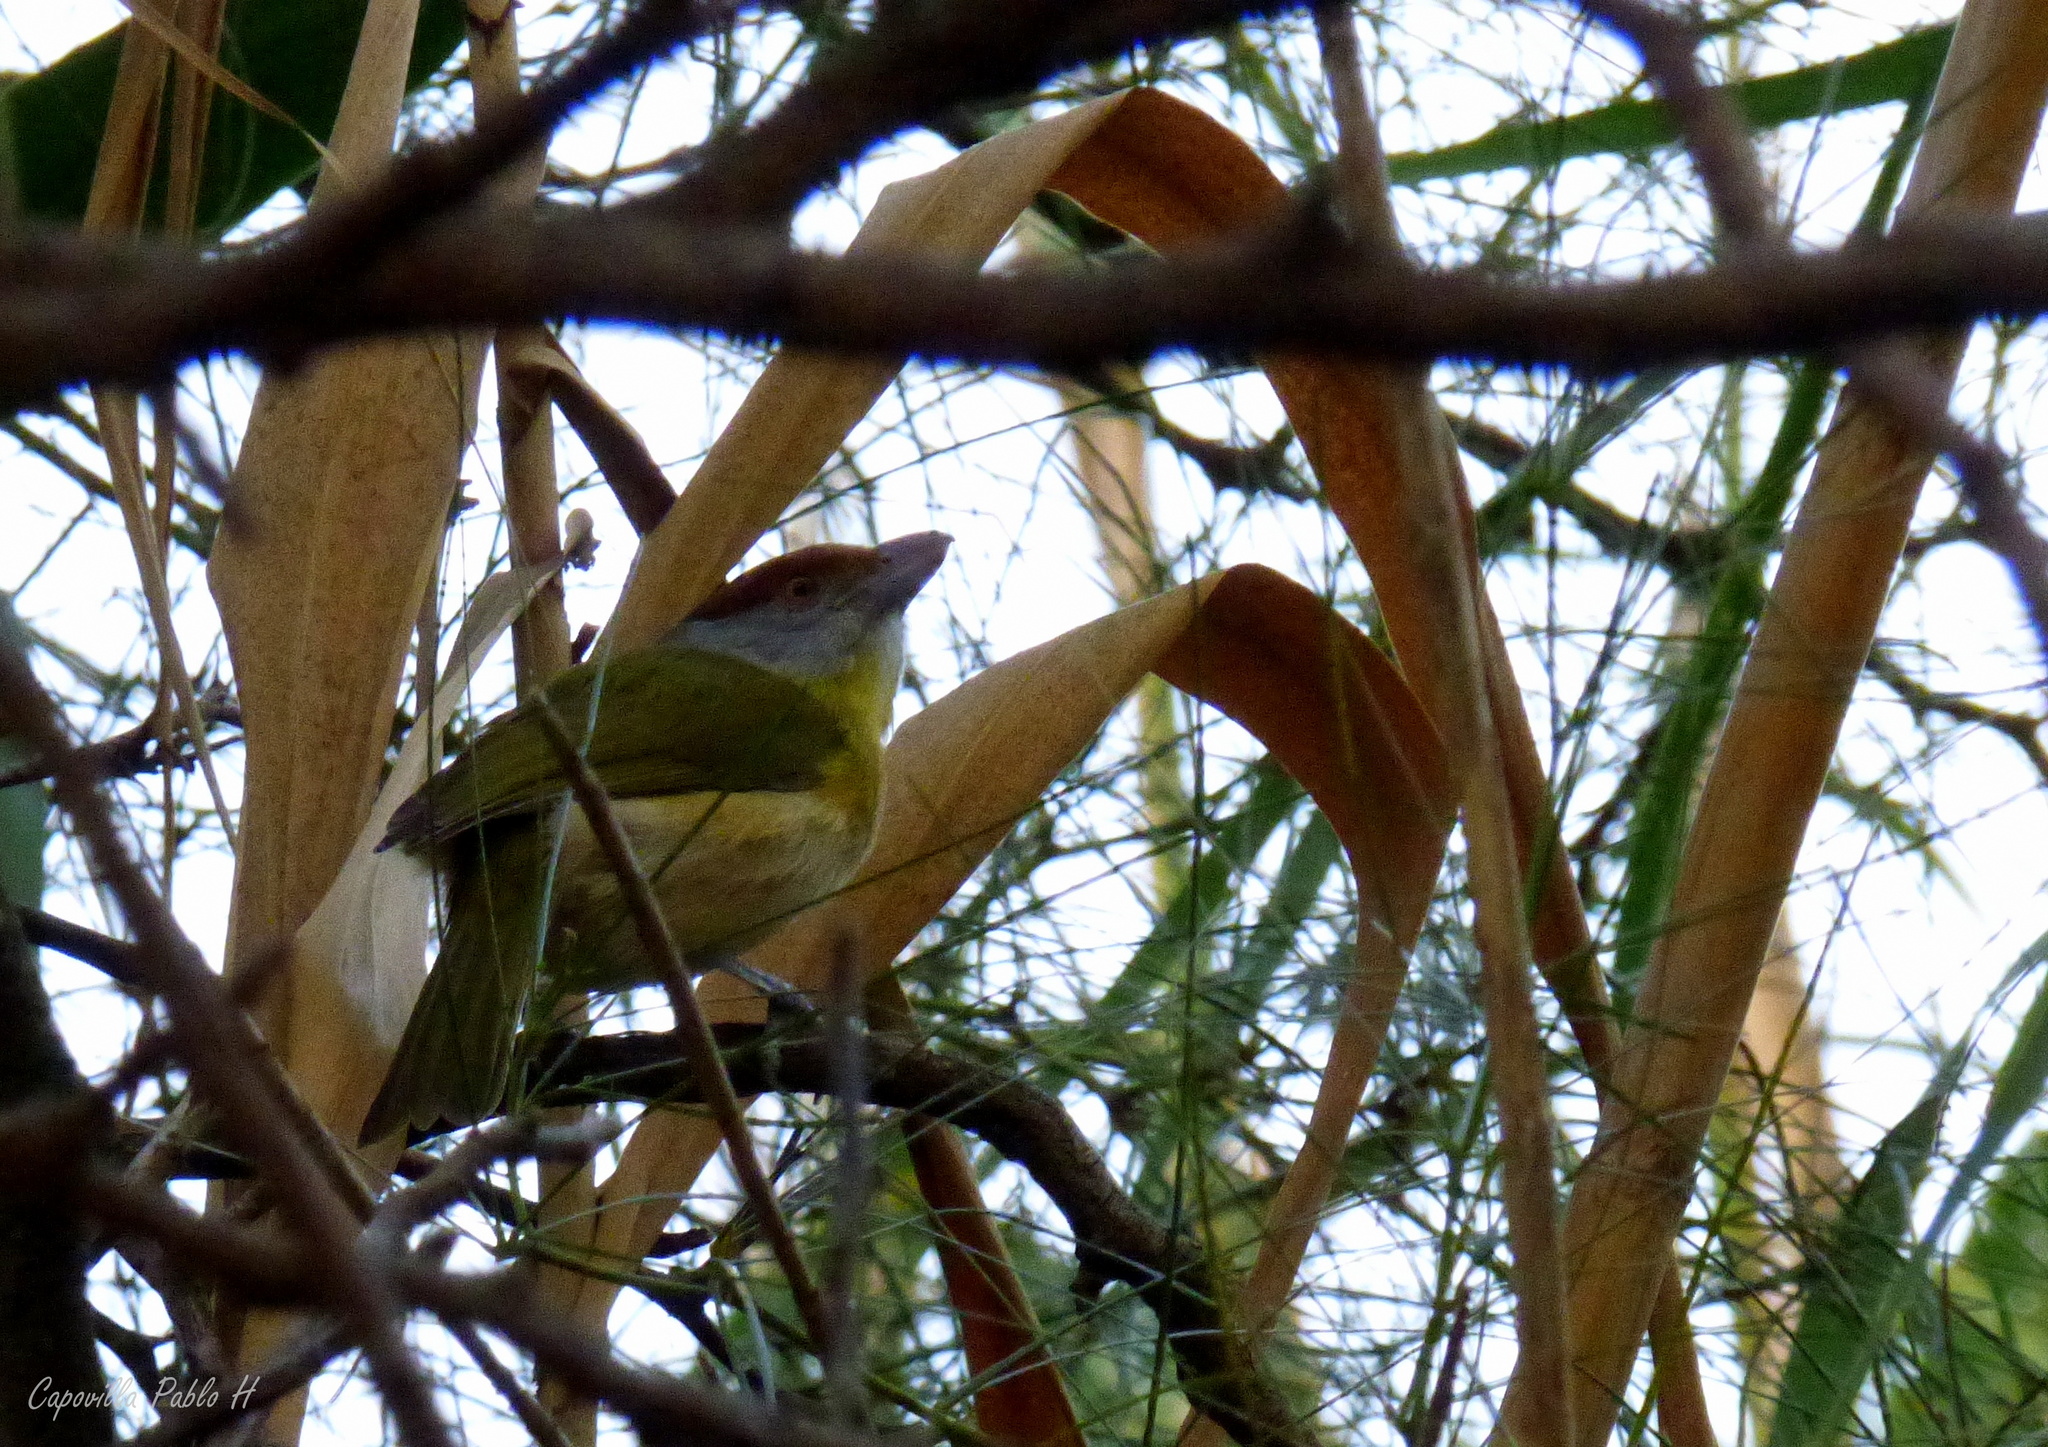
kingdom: Animalia
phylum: Chordata
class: Aves
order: Passeriformes
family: Vireonidae
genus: Cyclarhis
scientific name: Cyclarhis gujanensis
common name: Rufous-browed peppershrike
